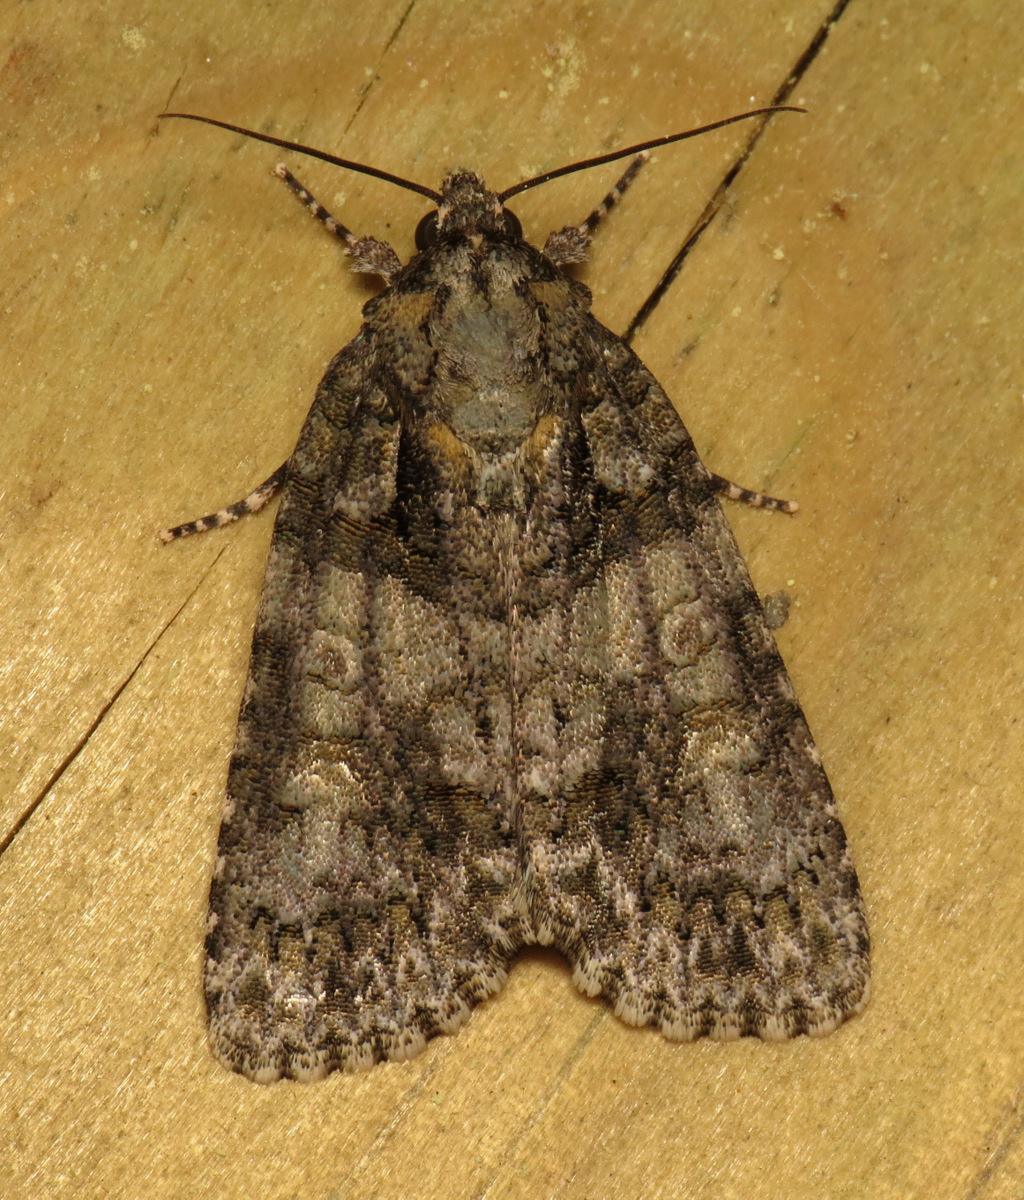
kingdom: Animalia
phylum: Arthropoda
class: Insecta
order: Lepidoptera
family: Noctuidae
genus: Acronicta
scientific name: Acronicta ovata
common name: Epauleted oak dagger
